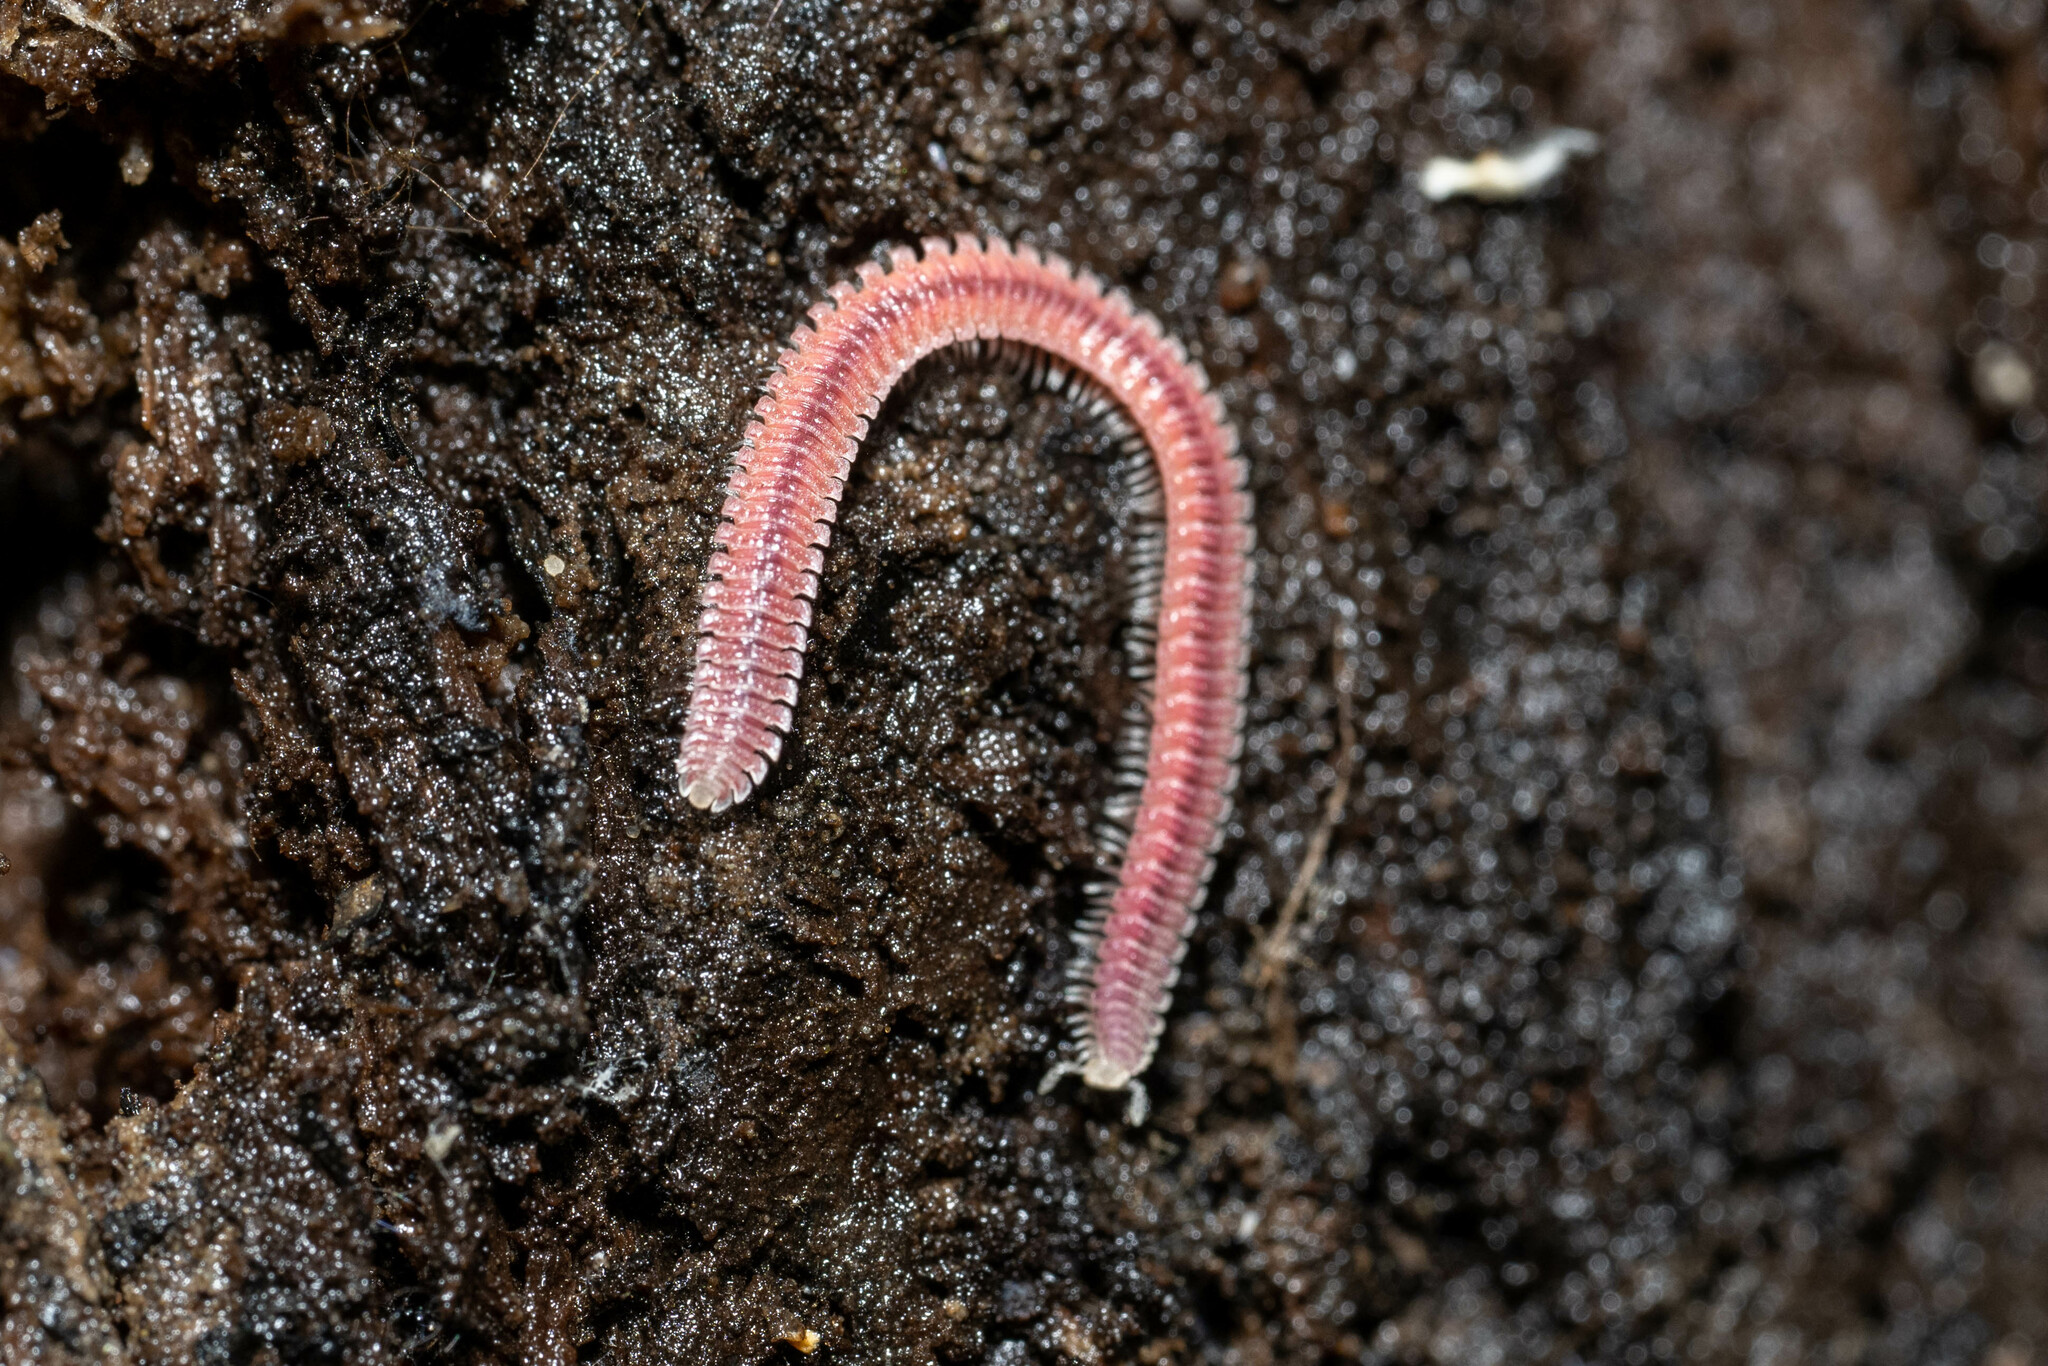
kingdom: Animalia
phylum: Arthropoda
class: Diplopoda
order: Platydesmida
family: Andrognathidae
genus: Gosodesmus
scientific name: Gosodesmus claremontus
